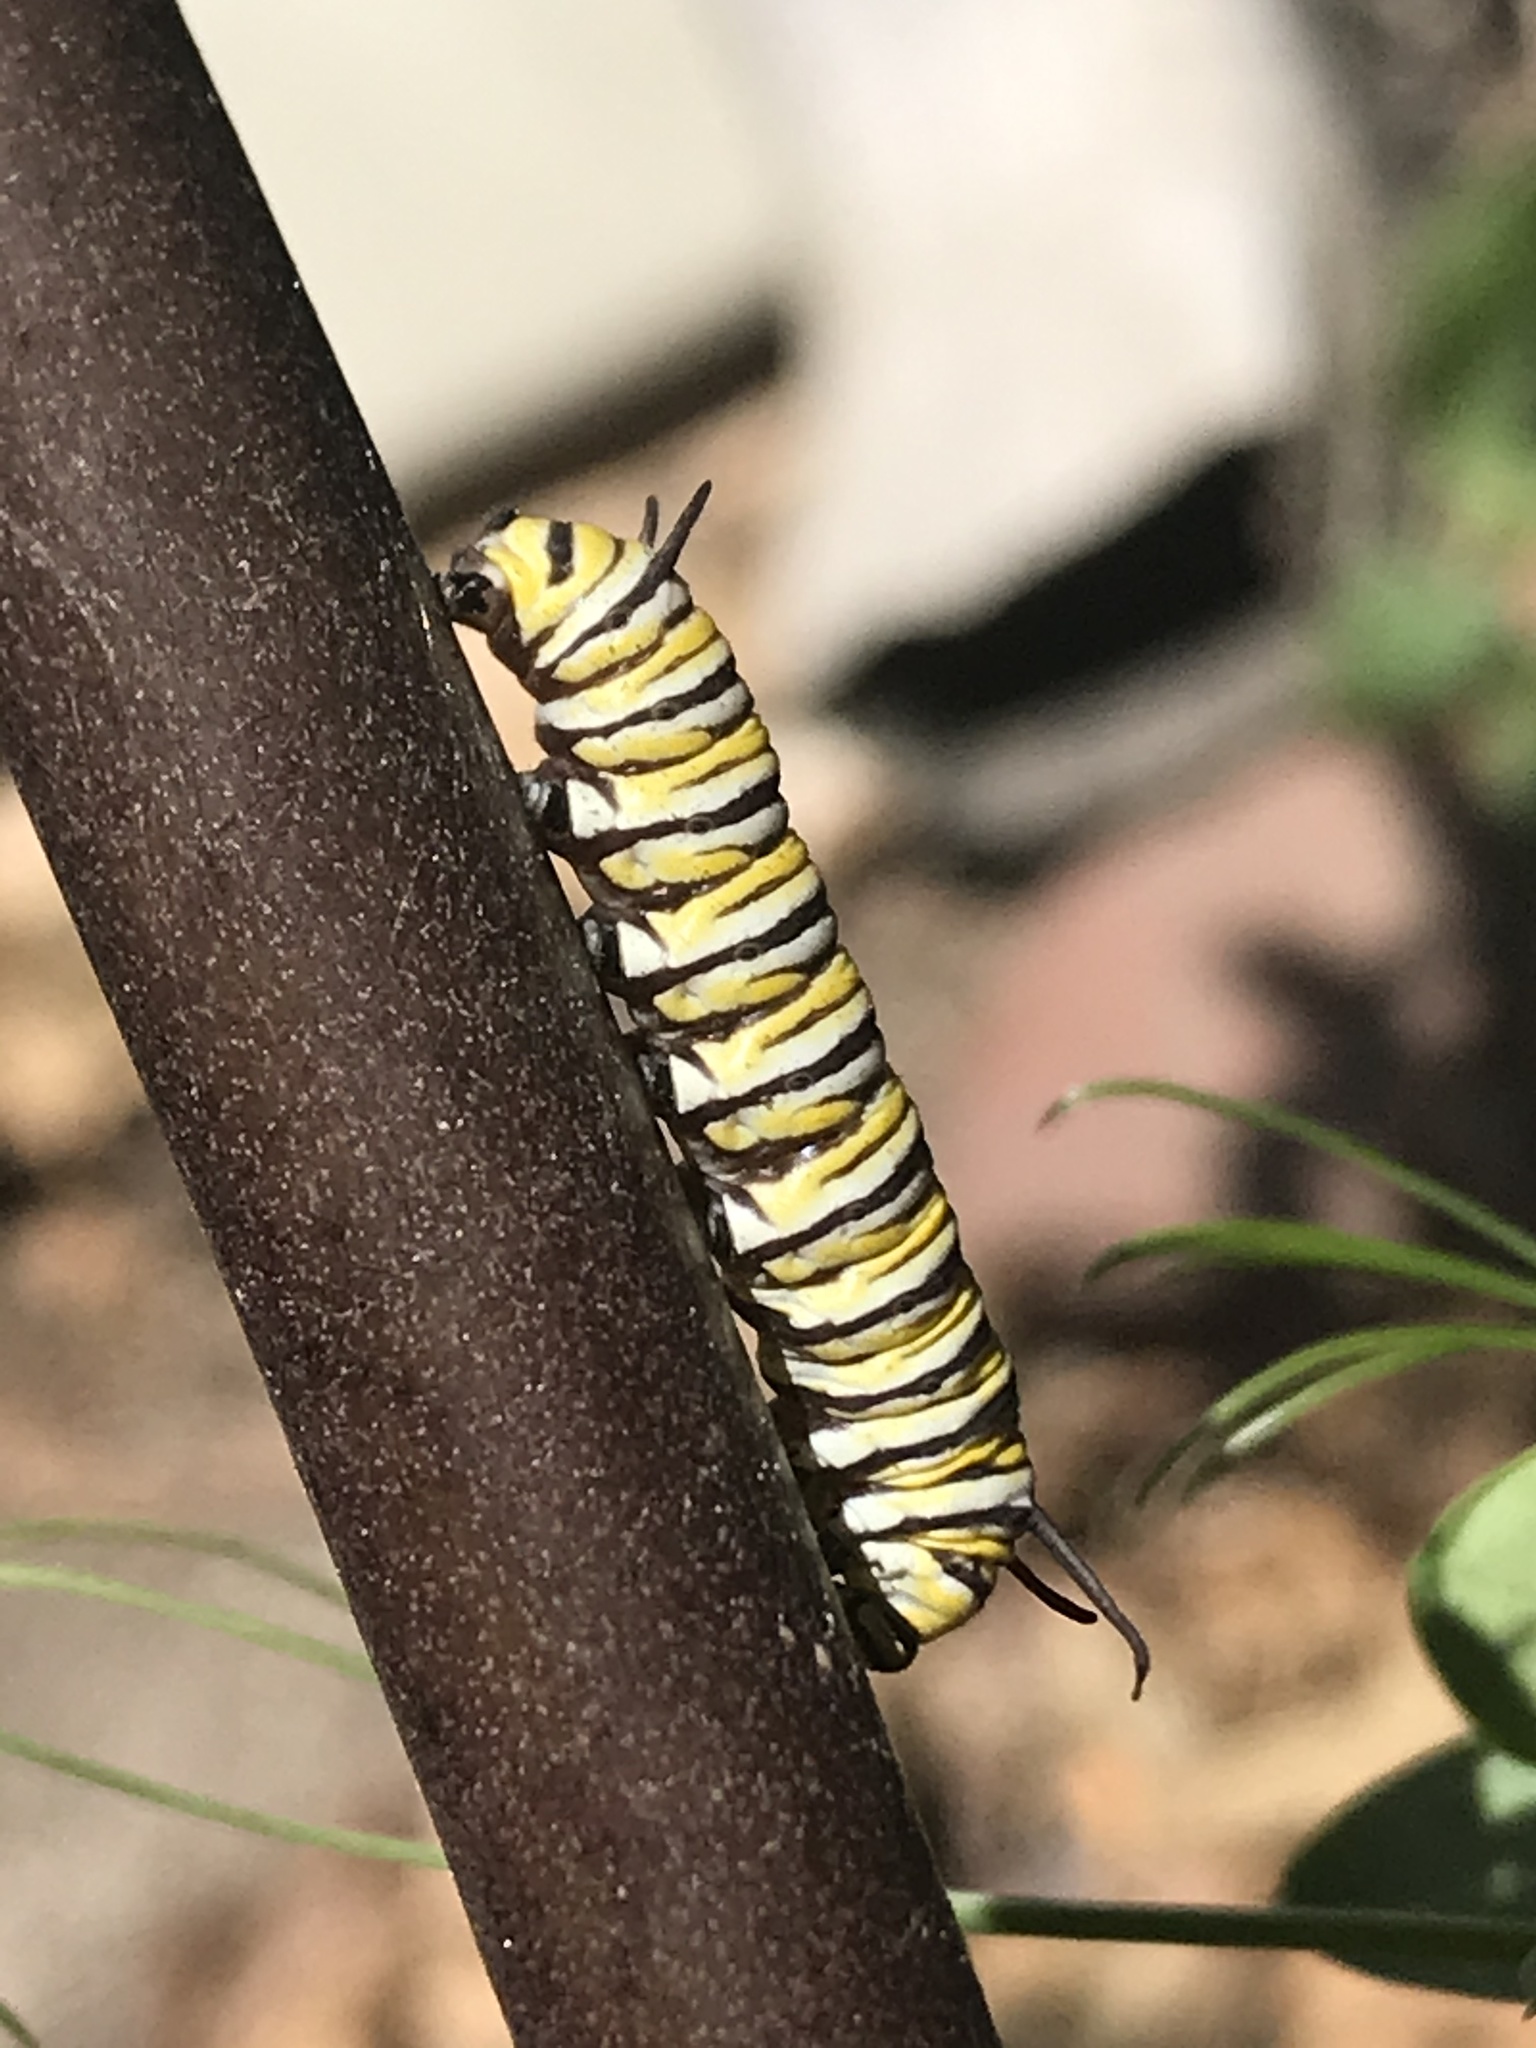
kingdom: Animalia
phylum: Arthropoda
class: Insecta
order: Lepidoptera
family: Nymphalidae
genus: Danaus
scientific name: Danaus plexippus
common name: Monarch
